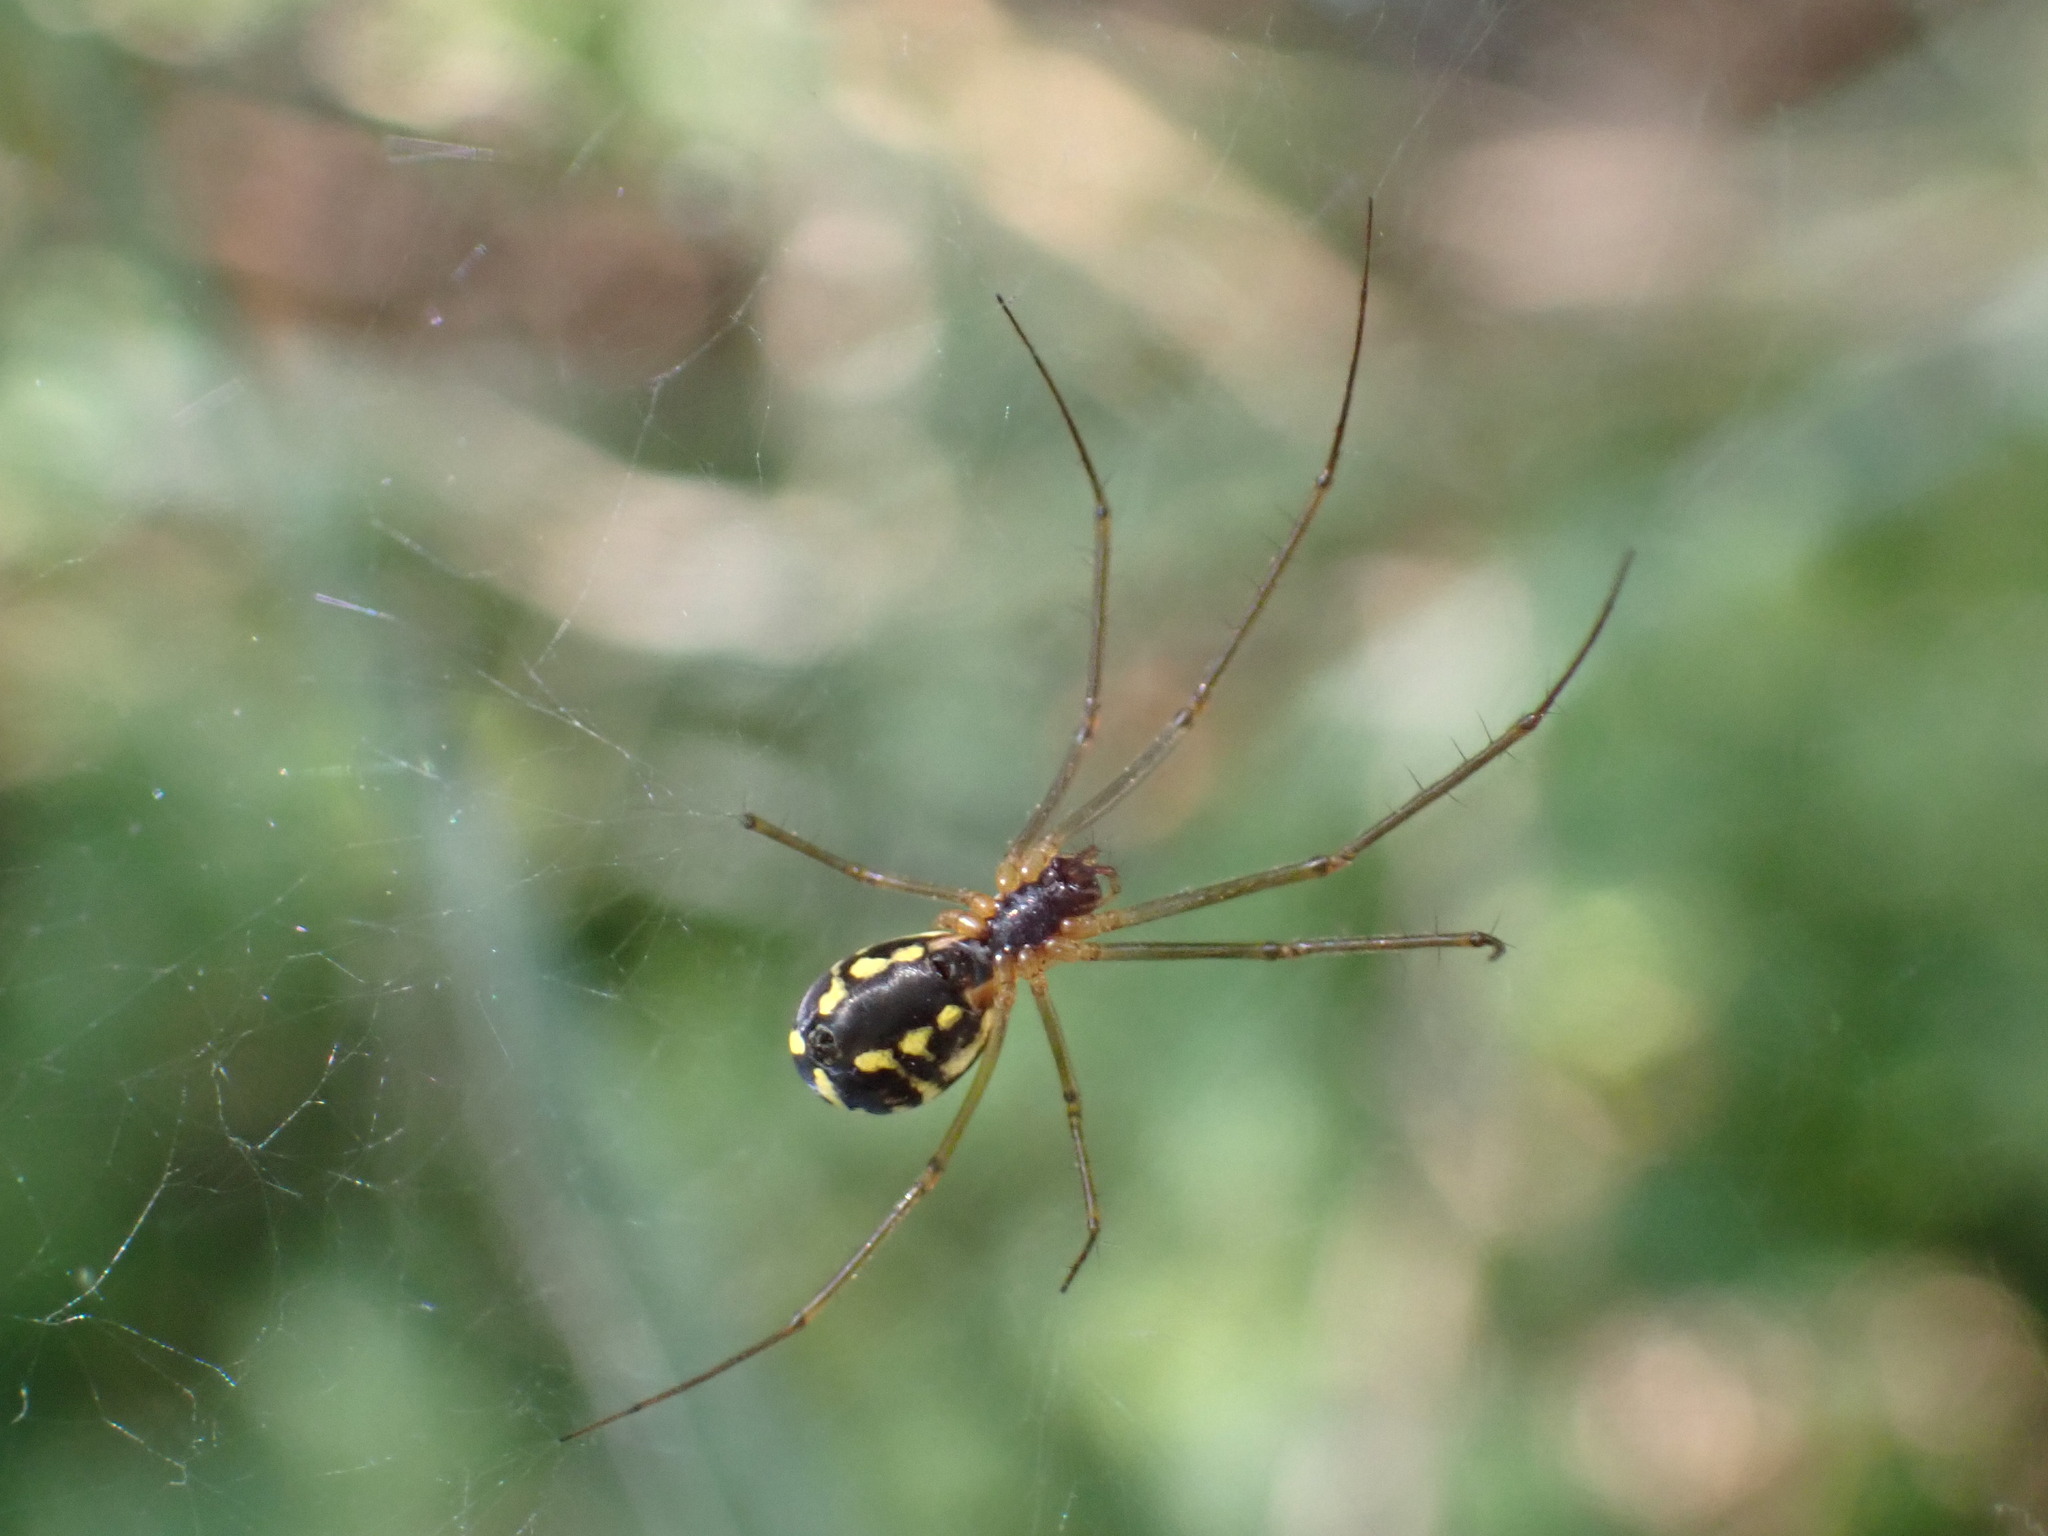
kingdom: Animalia
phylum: Arthropoda
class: Arachnida
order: Araneae
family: Linyphiidae
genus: Neriene
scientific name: Neriene radiata
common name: Filmy dome spider
